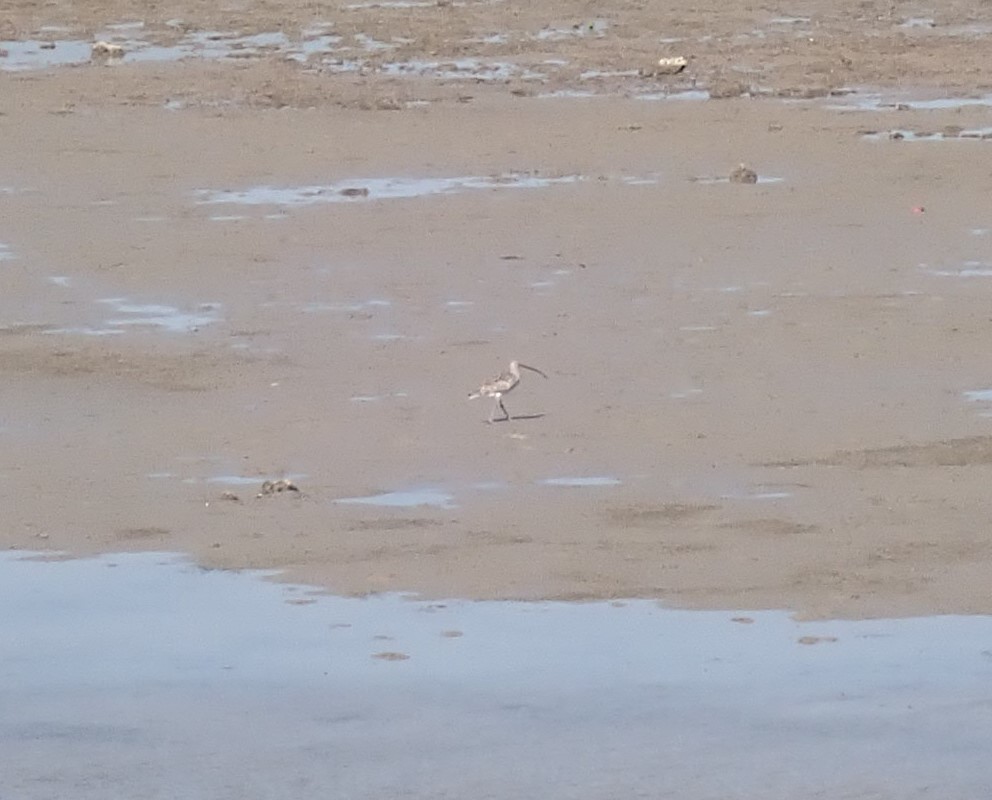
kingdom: Animalia
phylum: Chordata
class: Aves
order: Charadriiformes
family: Scolopacidae
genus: Numenius
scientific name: Numenius phaeopus
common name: Whimbrel
